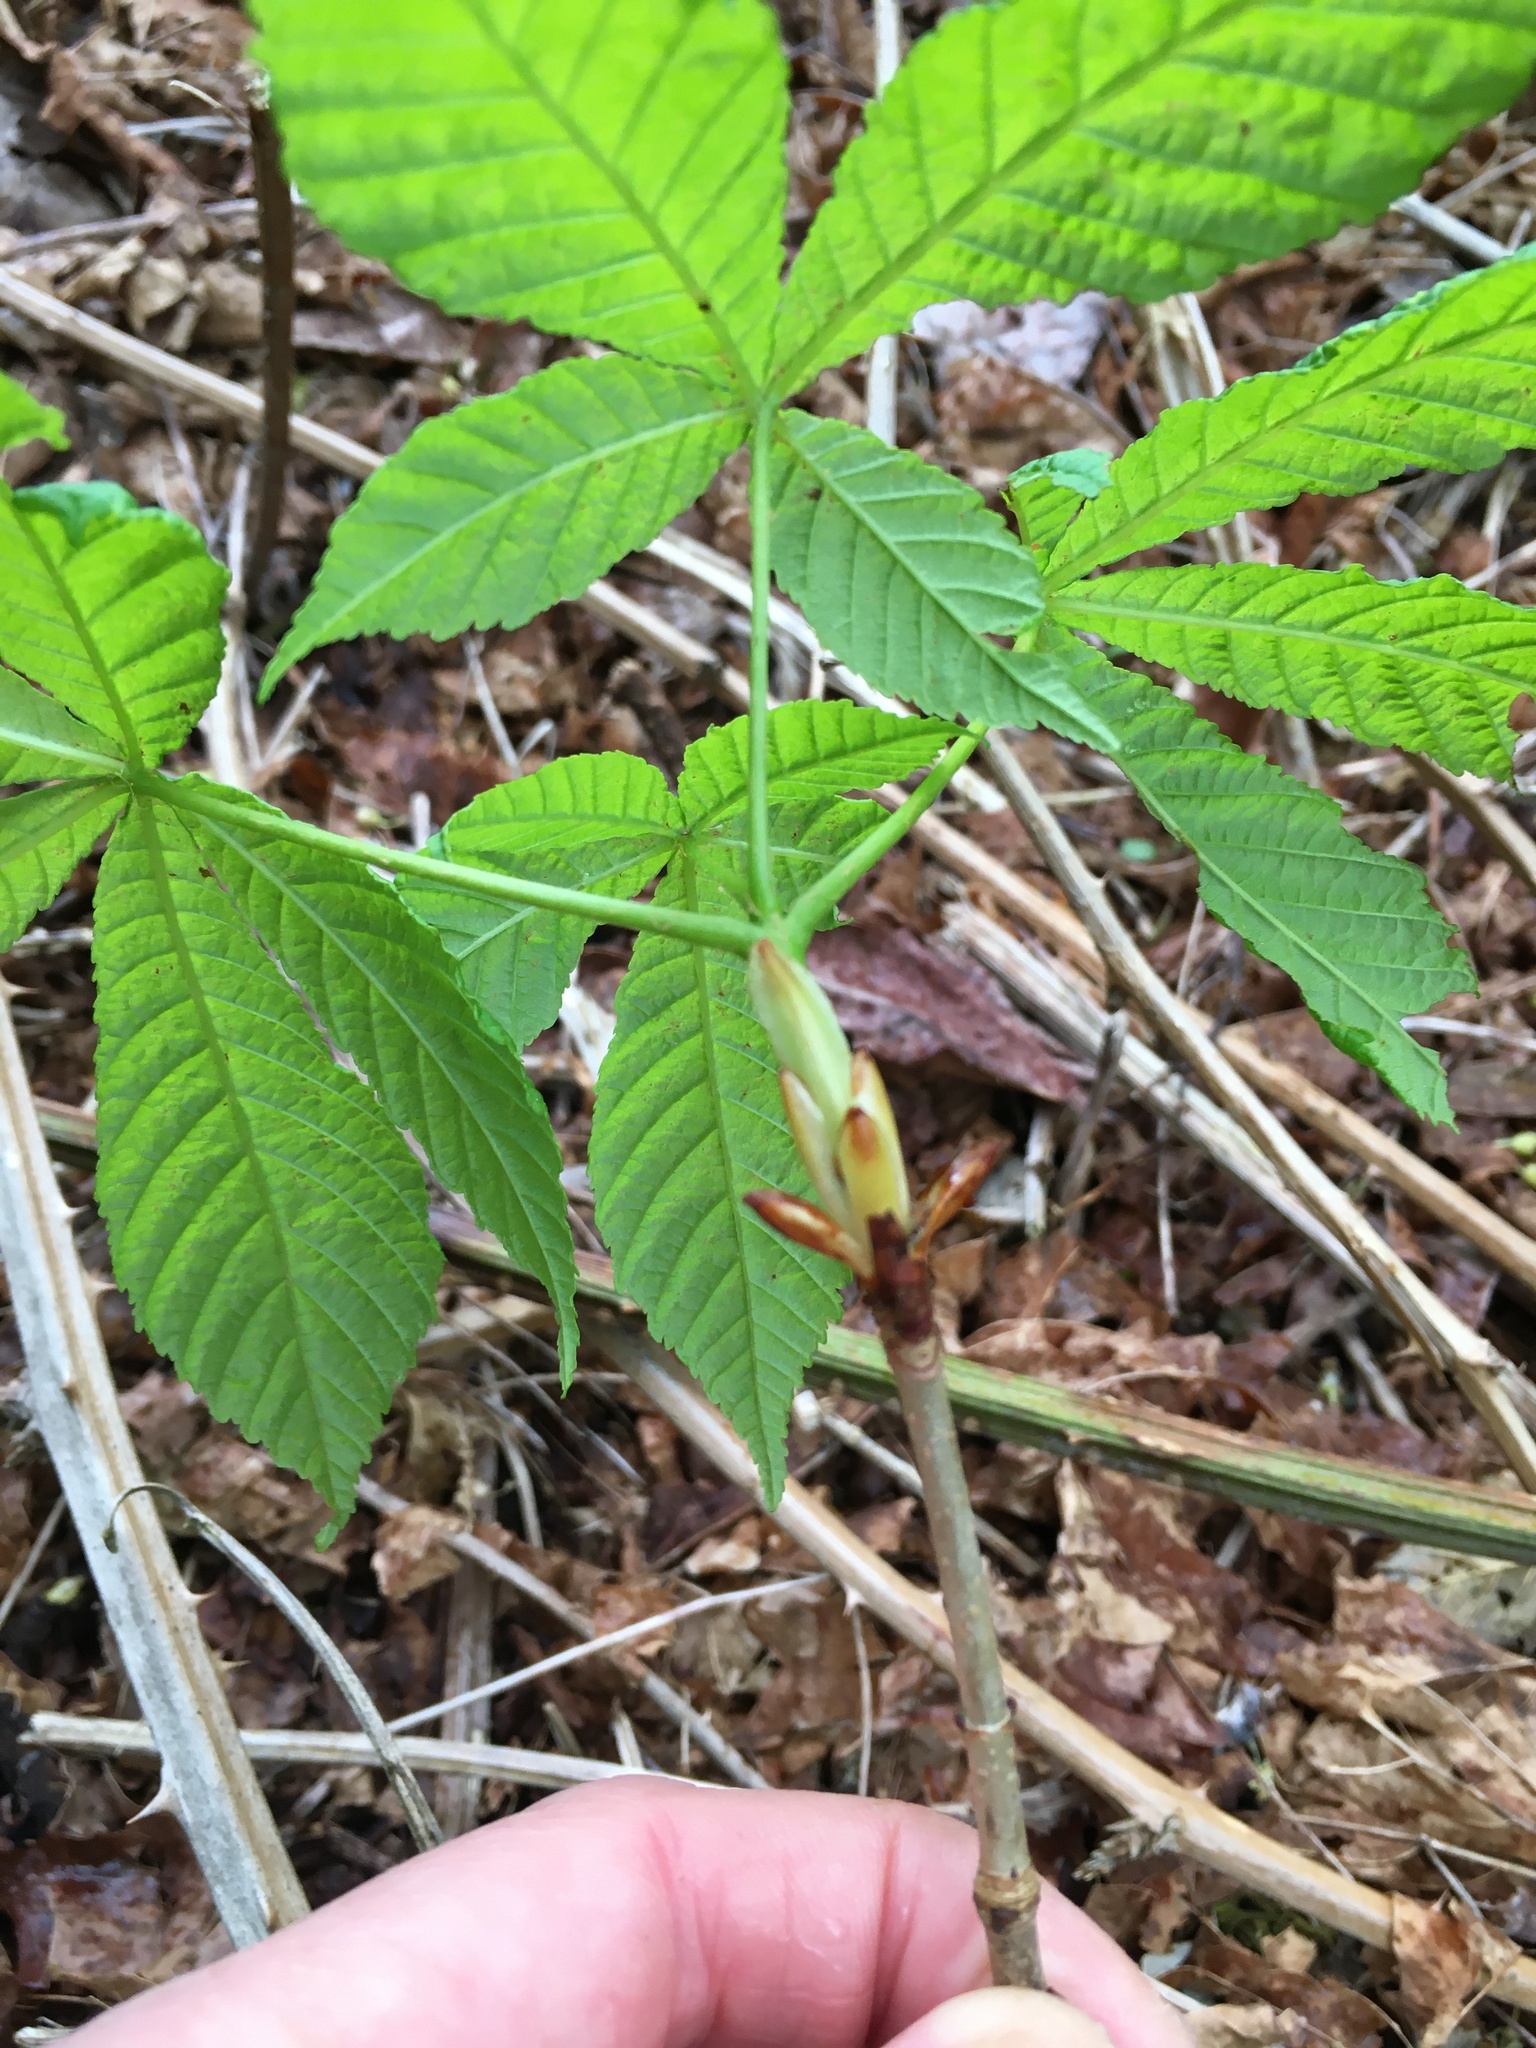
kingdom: Plantae
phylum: Tracheophyta
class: Magnoliopsida
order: Sapindales
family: Sapindaceae
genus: Aesculus
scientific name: Aesculus hippocastanum
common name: Horse-chestnut
